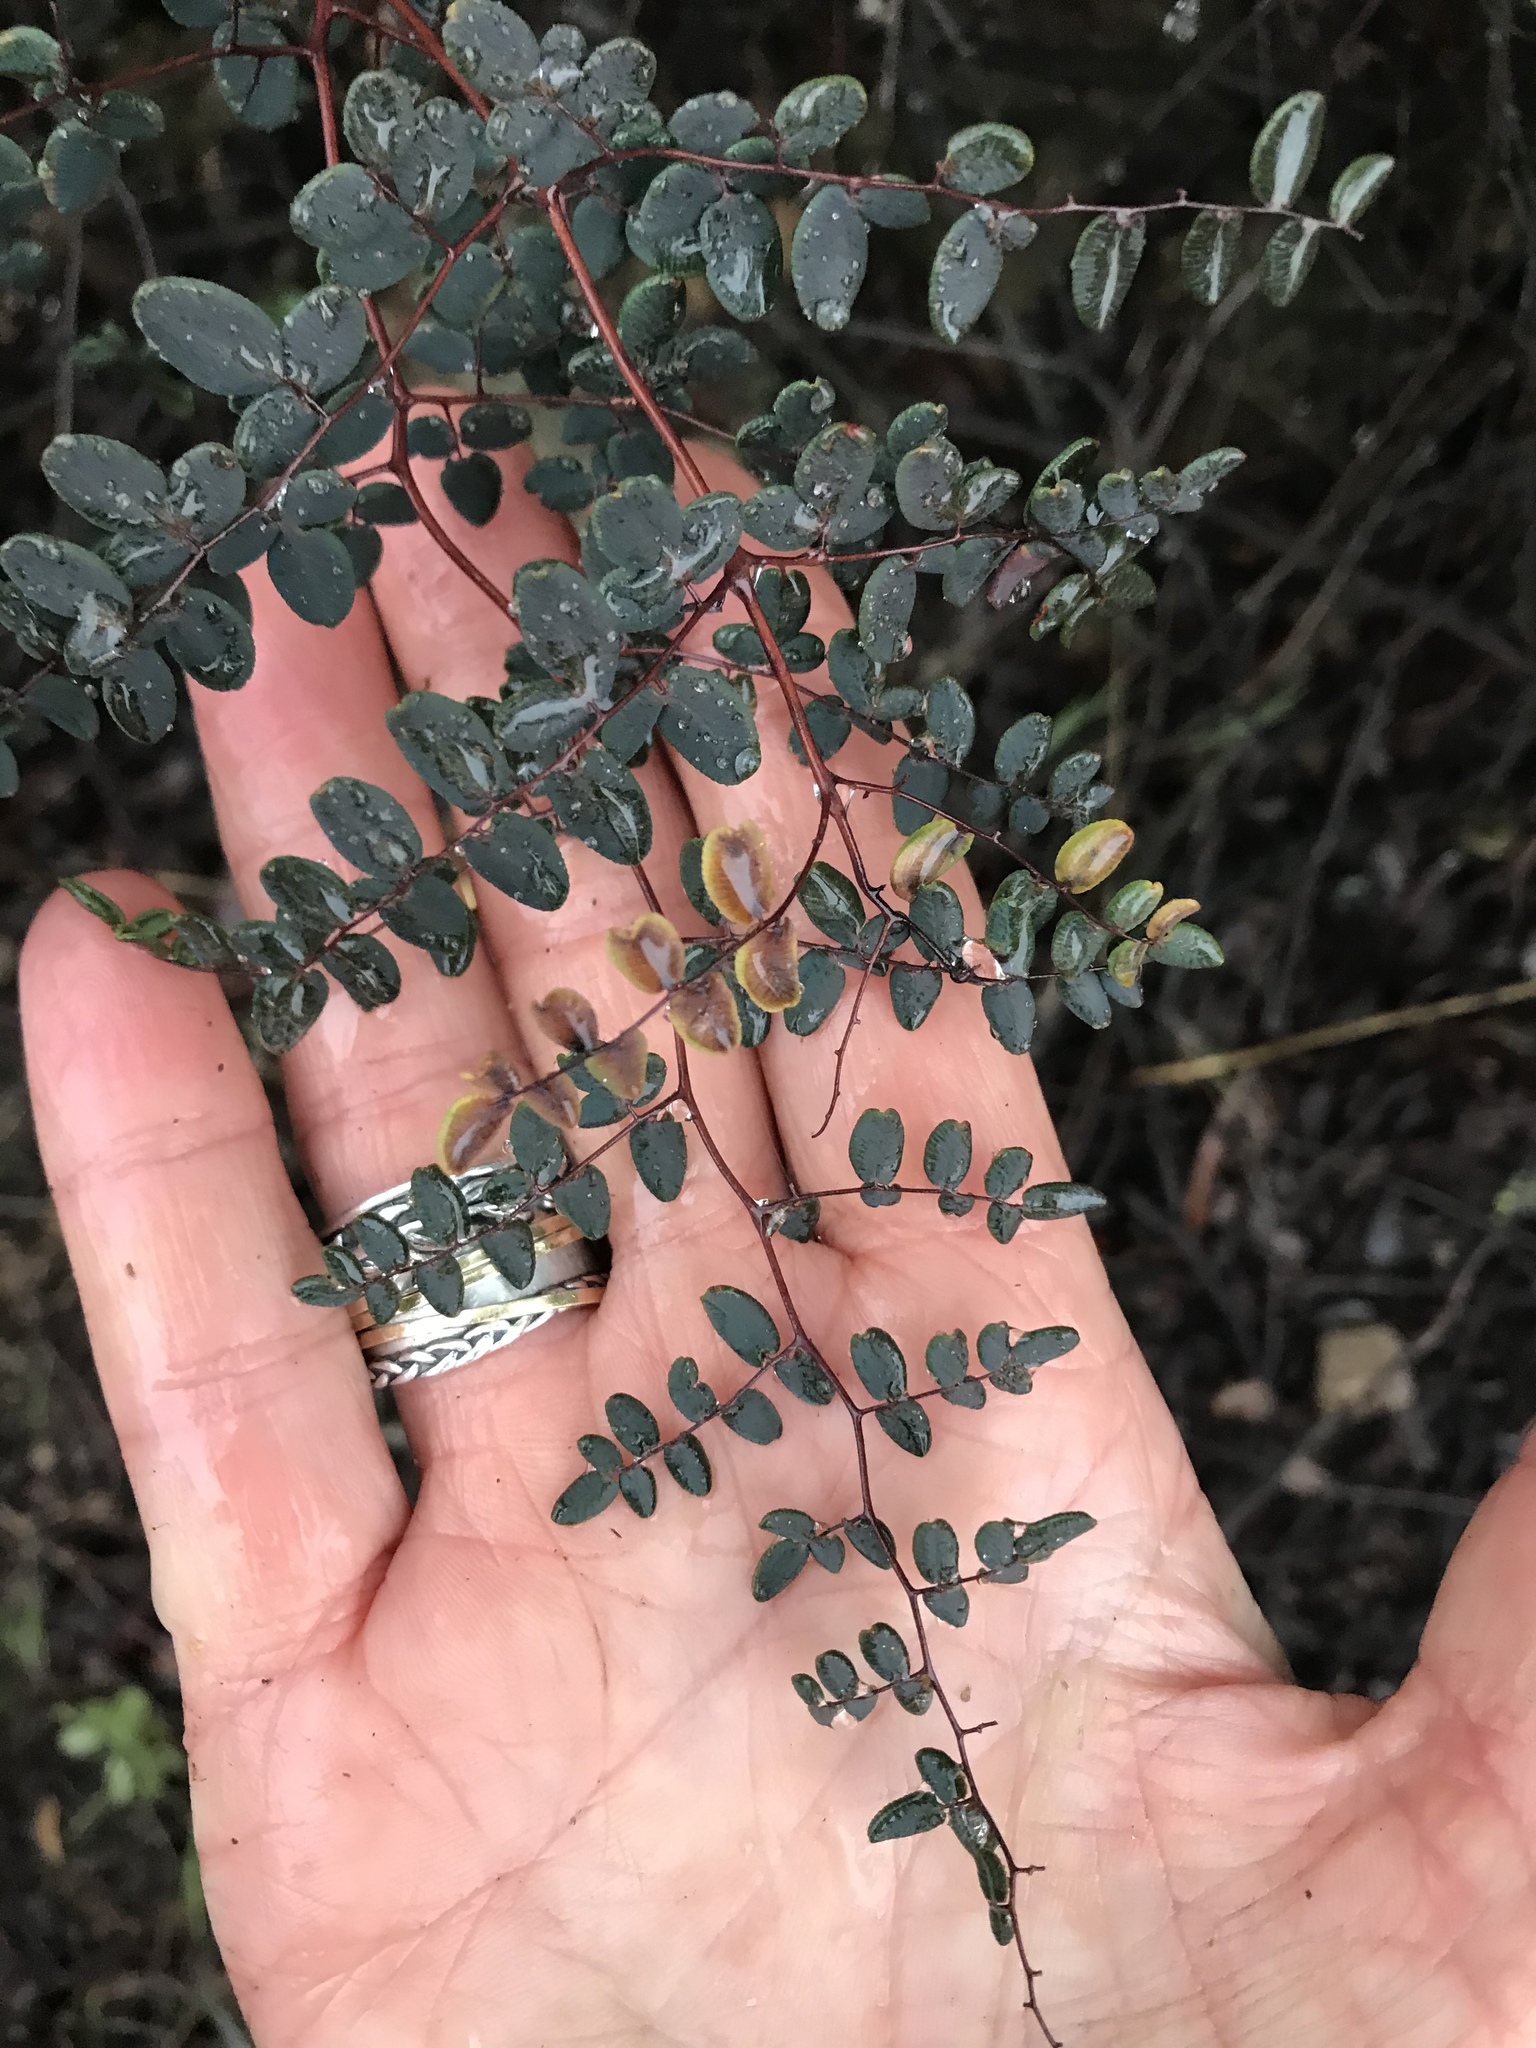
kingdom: Plantae
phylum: Tracheophyta
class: Polypodiopsida
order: Polypodiales
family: Pteridaceae
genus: Pellaea
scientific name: Pellaea andromedifolia
